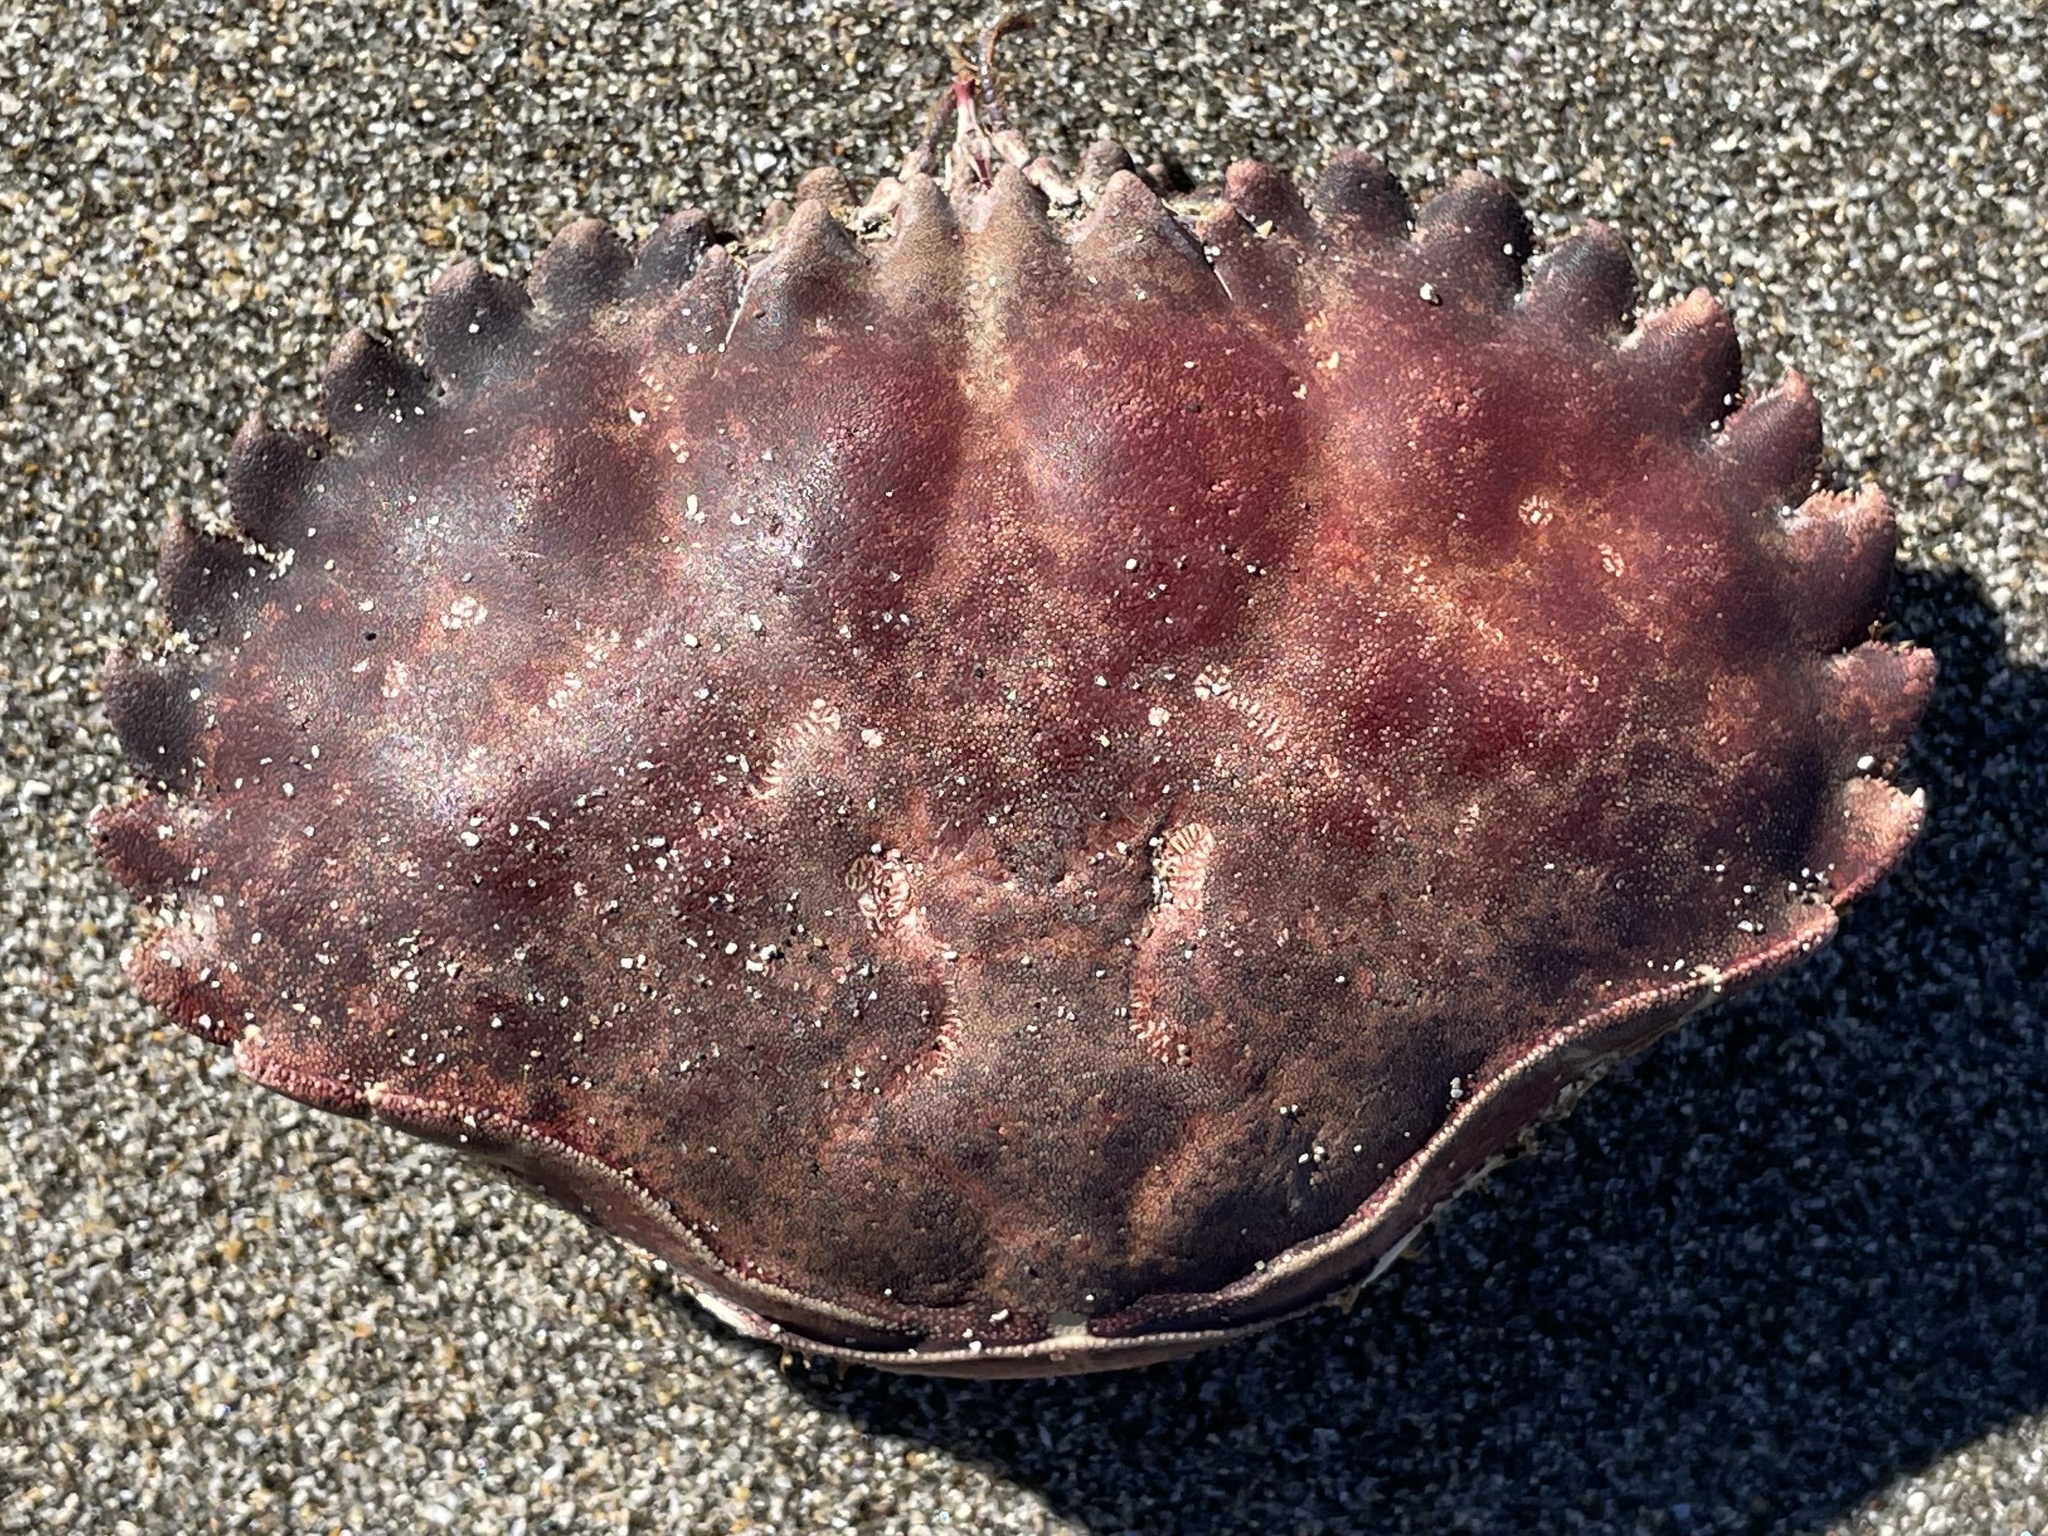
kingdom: Animalia
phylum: Arthropoda
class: Malacostraca
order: Decapoda
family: Cancridae
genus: Romaleon
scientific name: Romaleon antennarium
